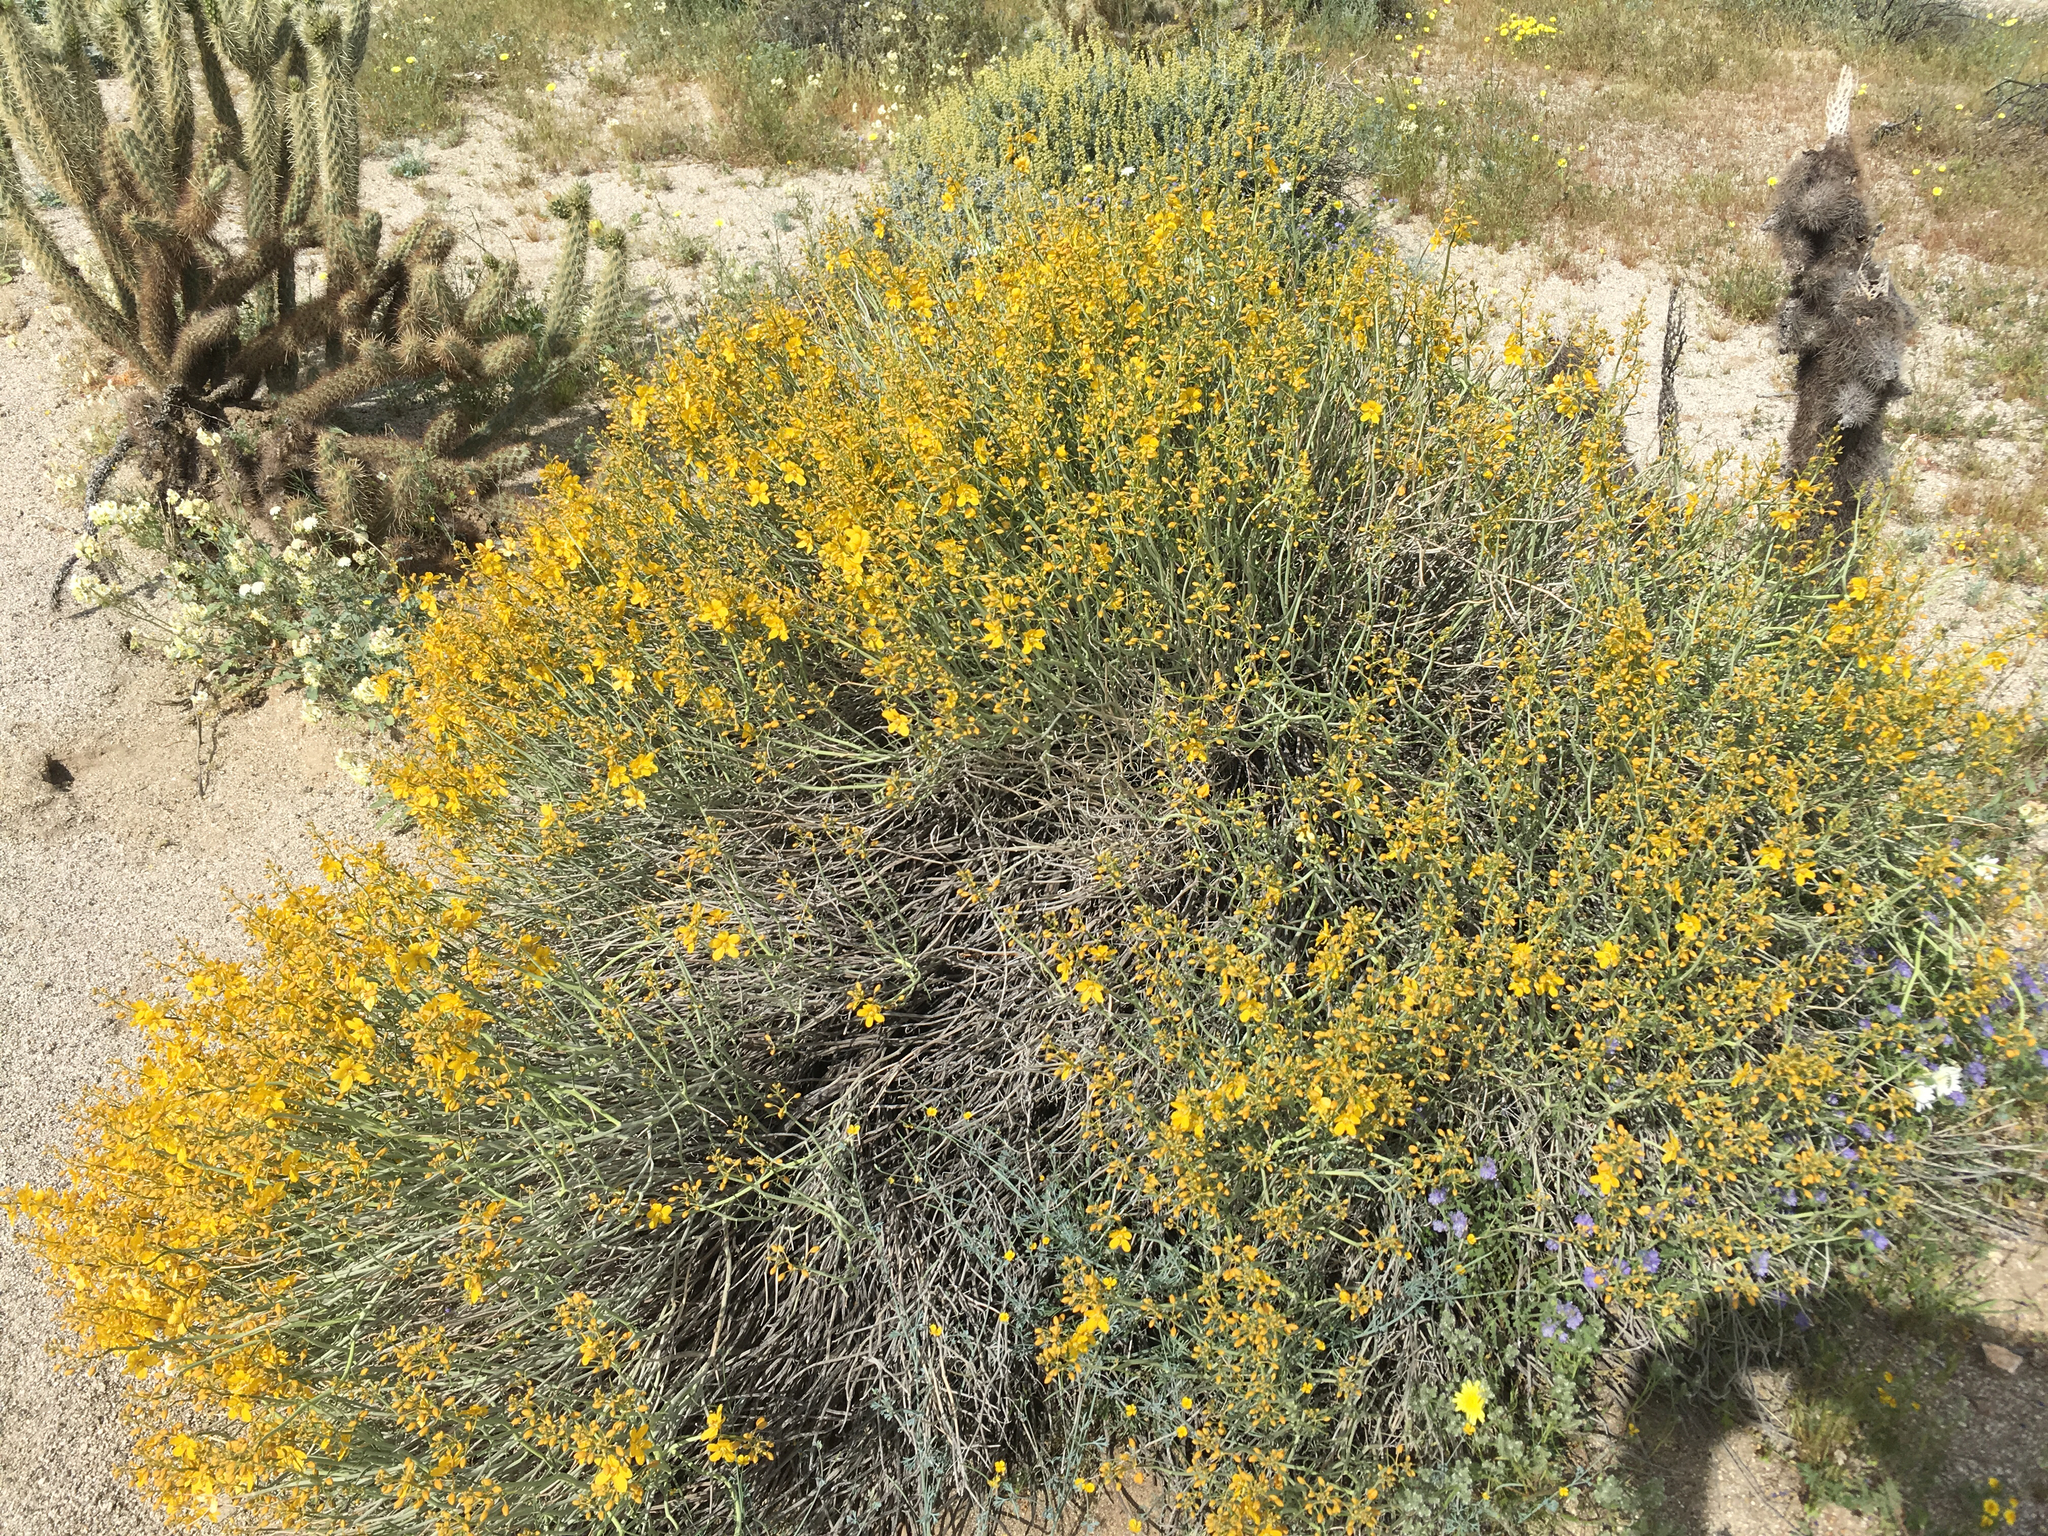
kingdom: Plantae
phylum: Tracheophyta
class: Magnoliopsida
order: Fabales
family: Fabaceae
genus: Senna
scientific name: Senna armata
